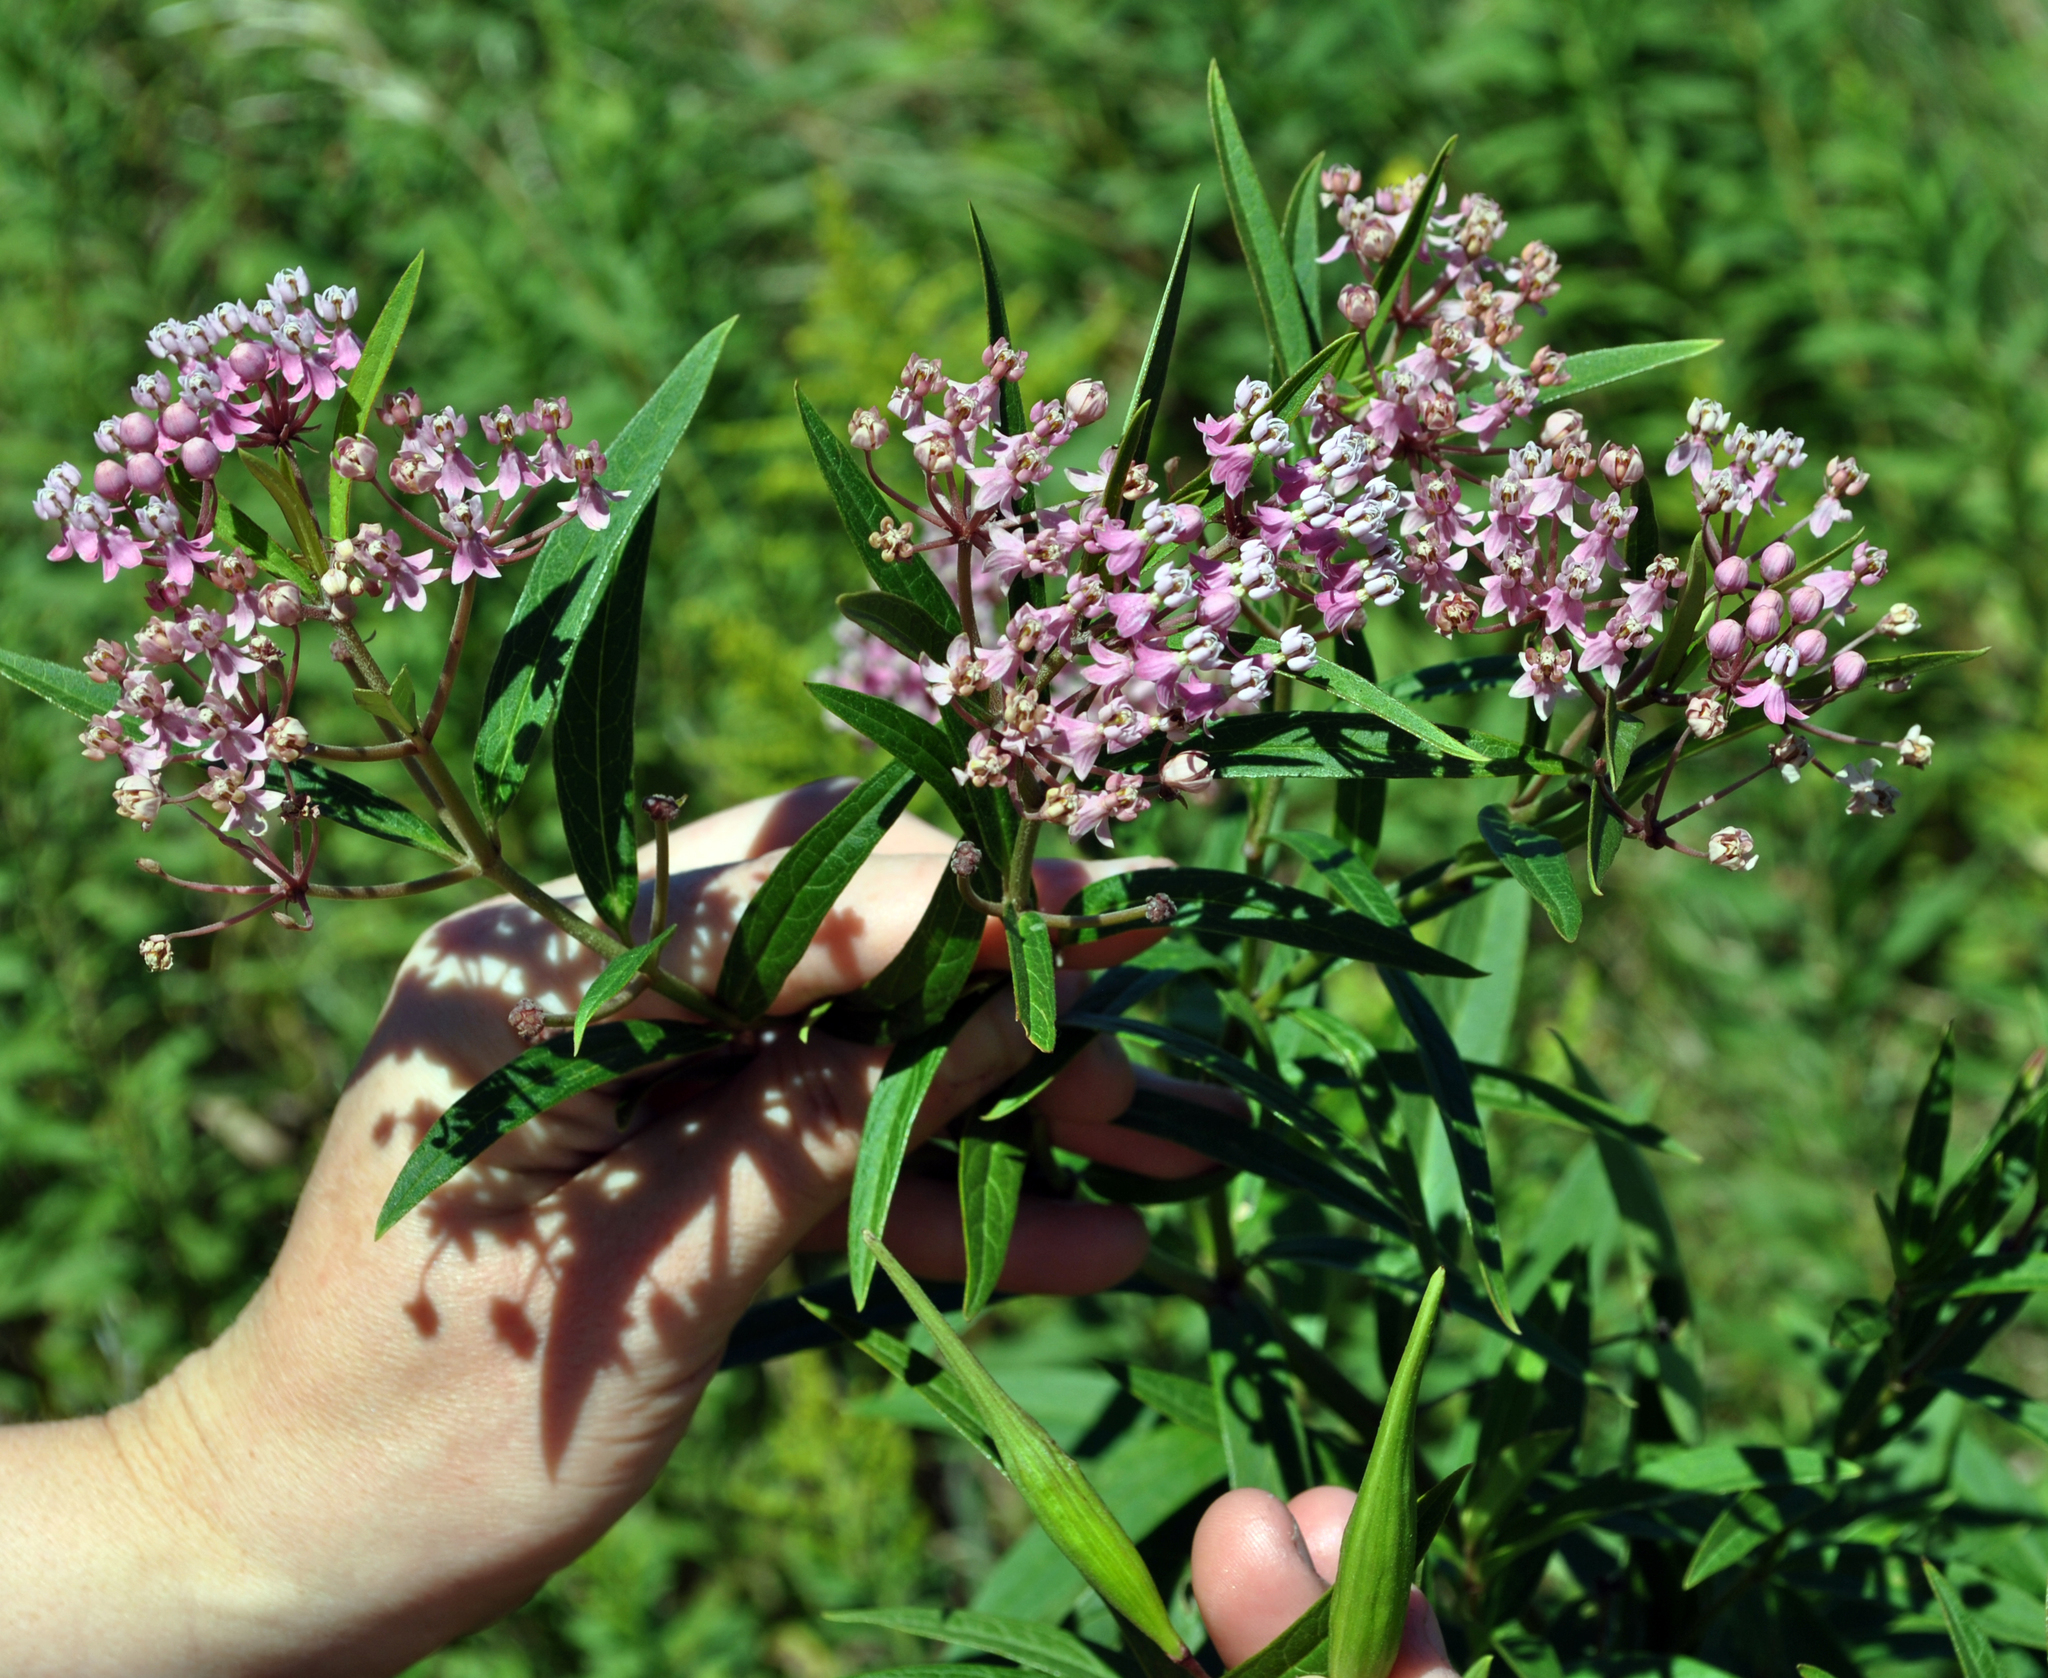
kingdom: Plantae
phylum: Tracheophyta
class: Magnoliopsida
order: Gentianales
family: Apocynaceae
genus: Asclepias
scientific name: Asclepias incarnata
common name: Swamp milkweed
